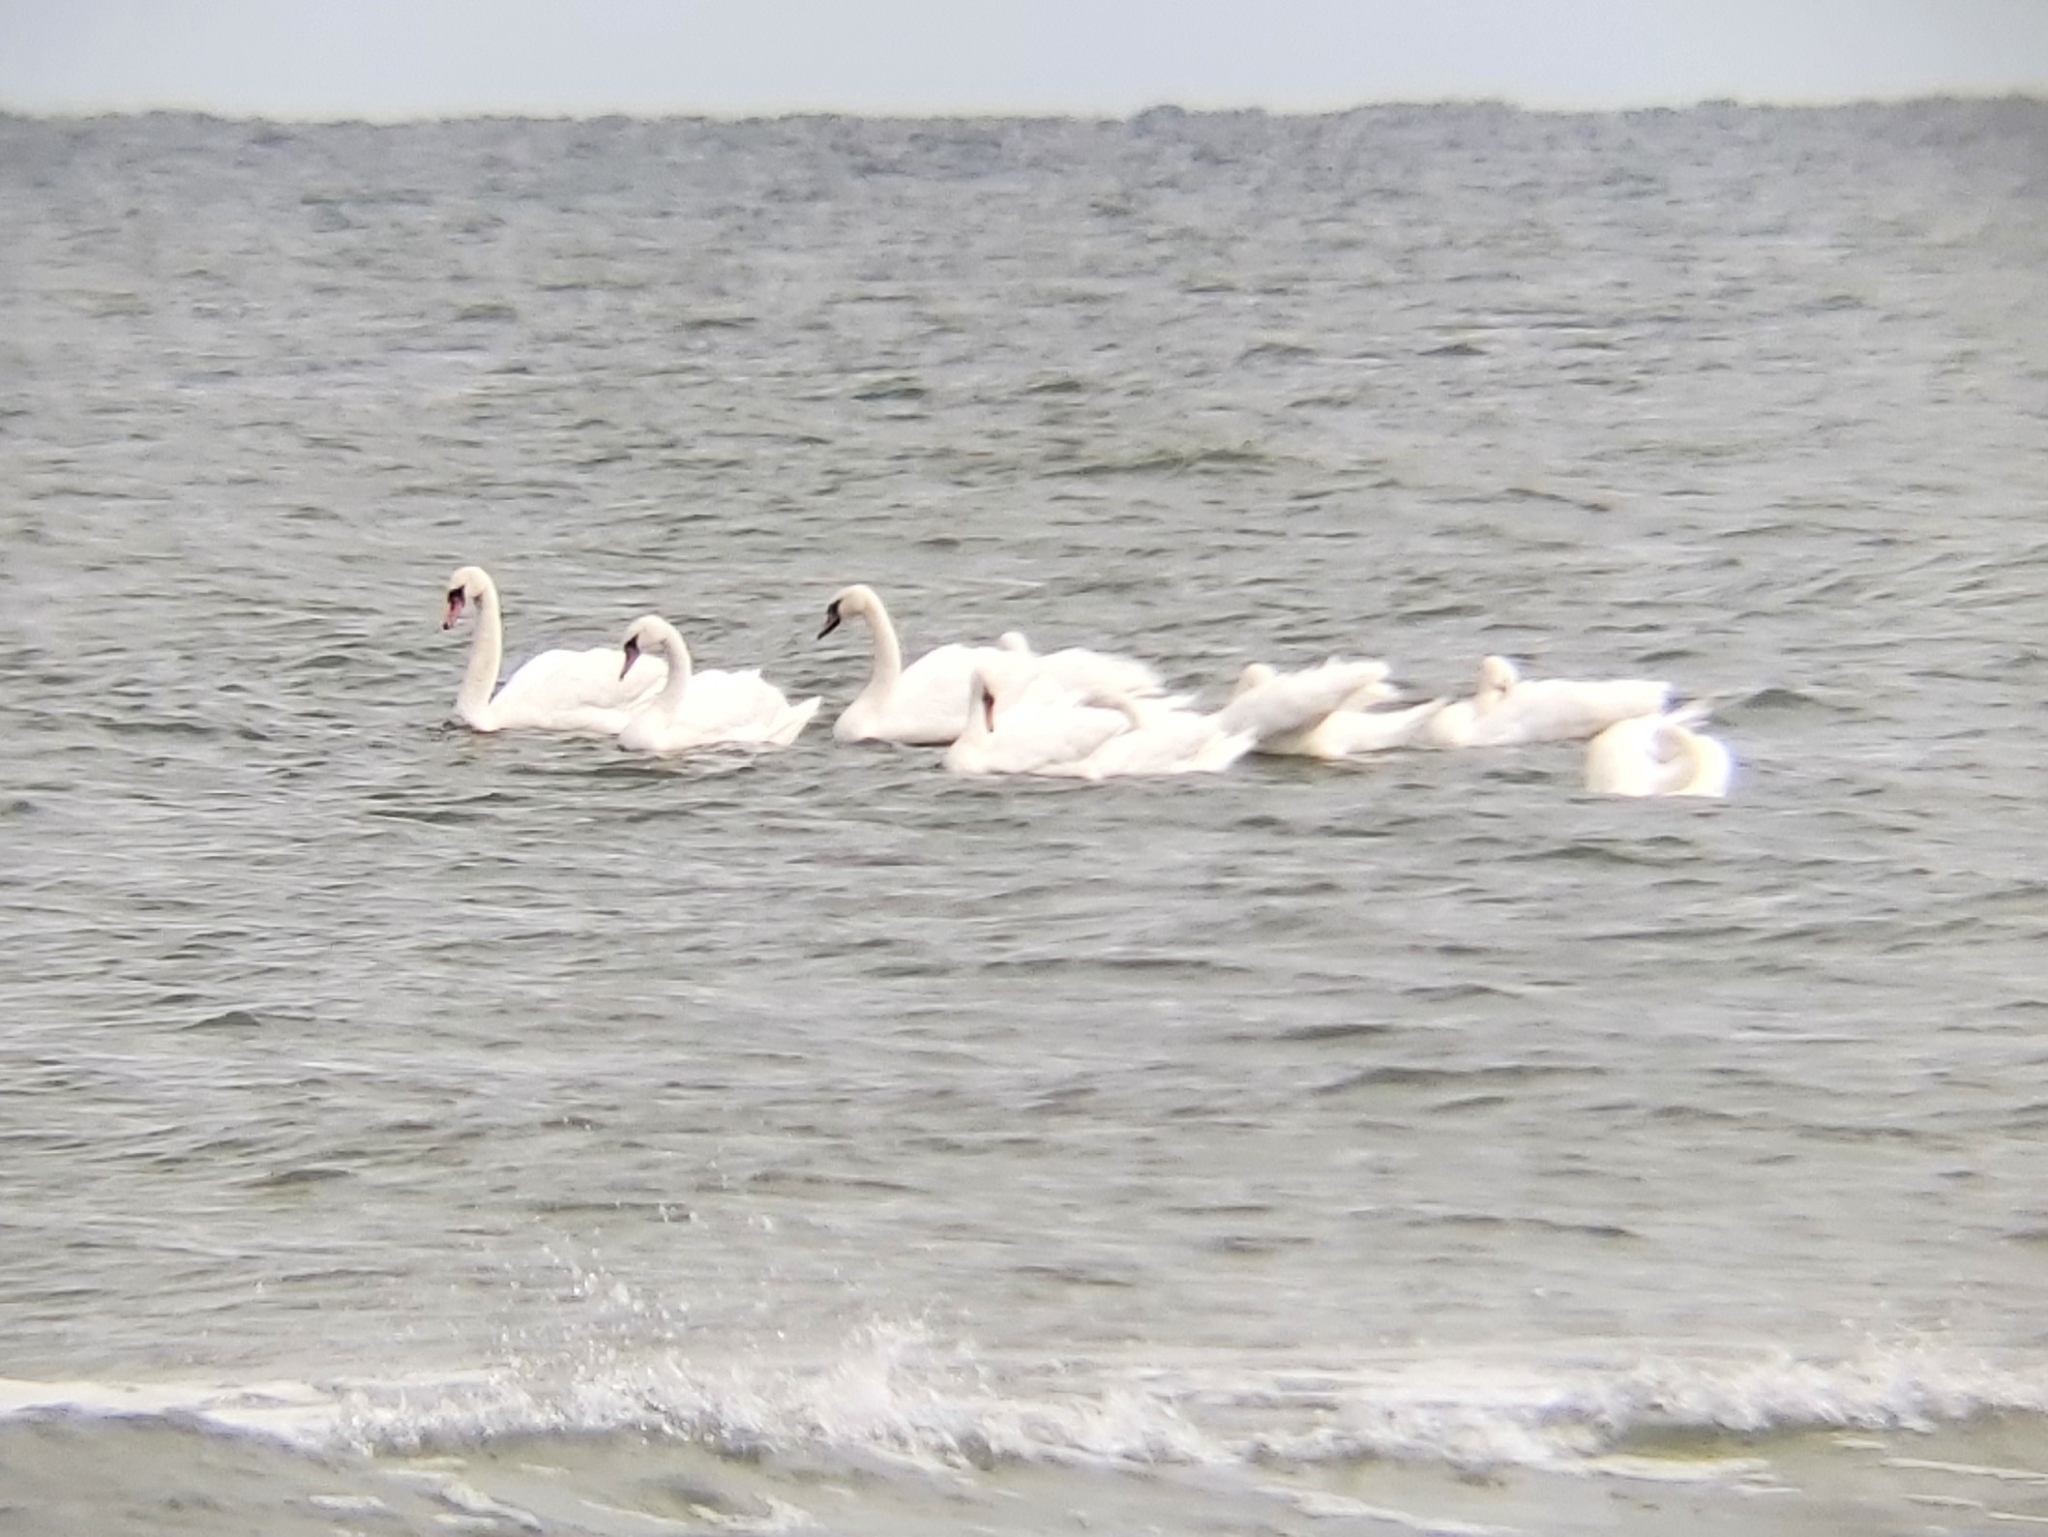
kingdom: Animalia
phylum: Chordata
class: Aves
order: Anseriformes
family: Anatidae
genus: Cygnus
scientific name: Cygnus olor
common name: Mute swan
